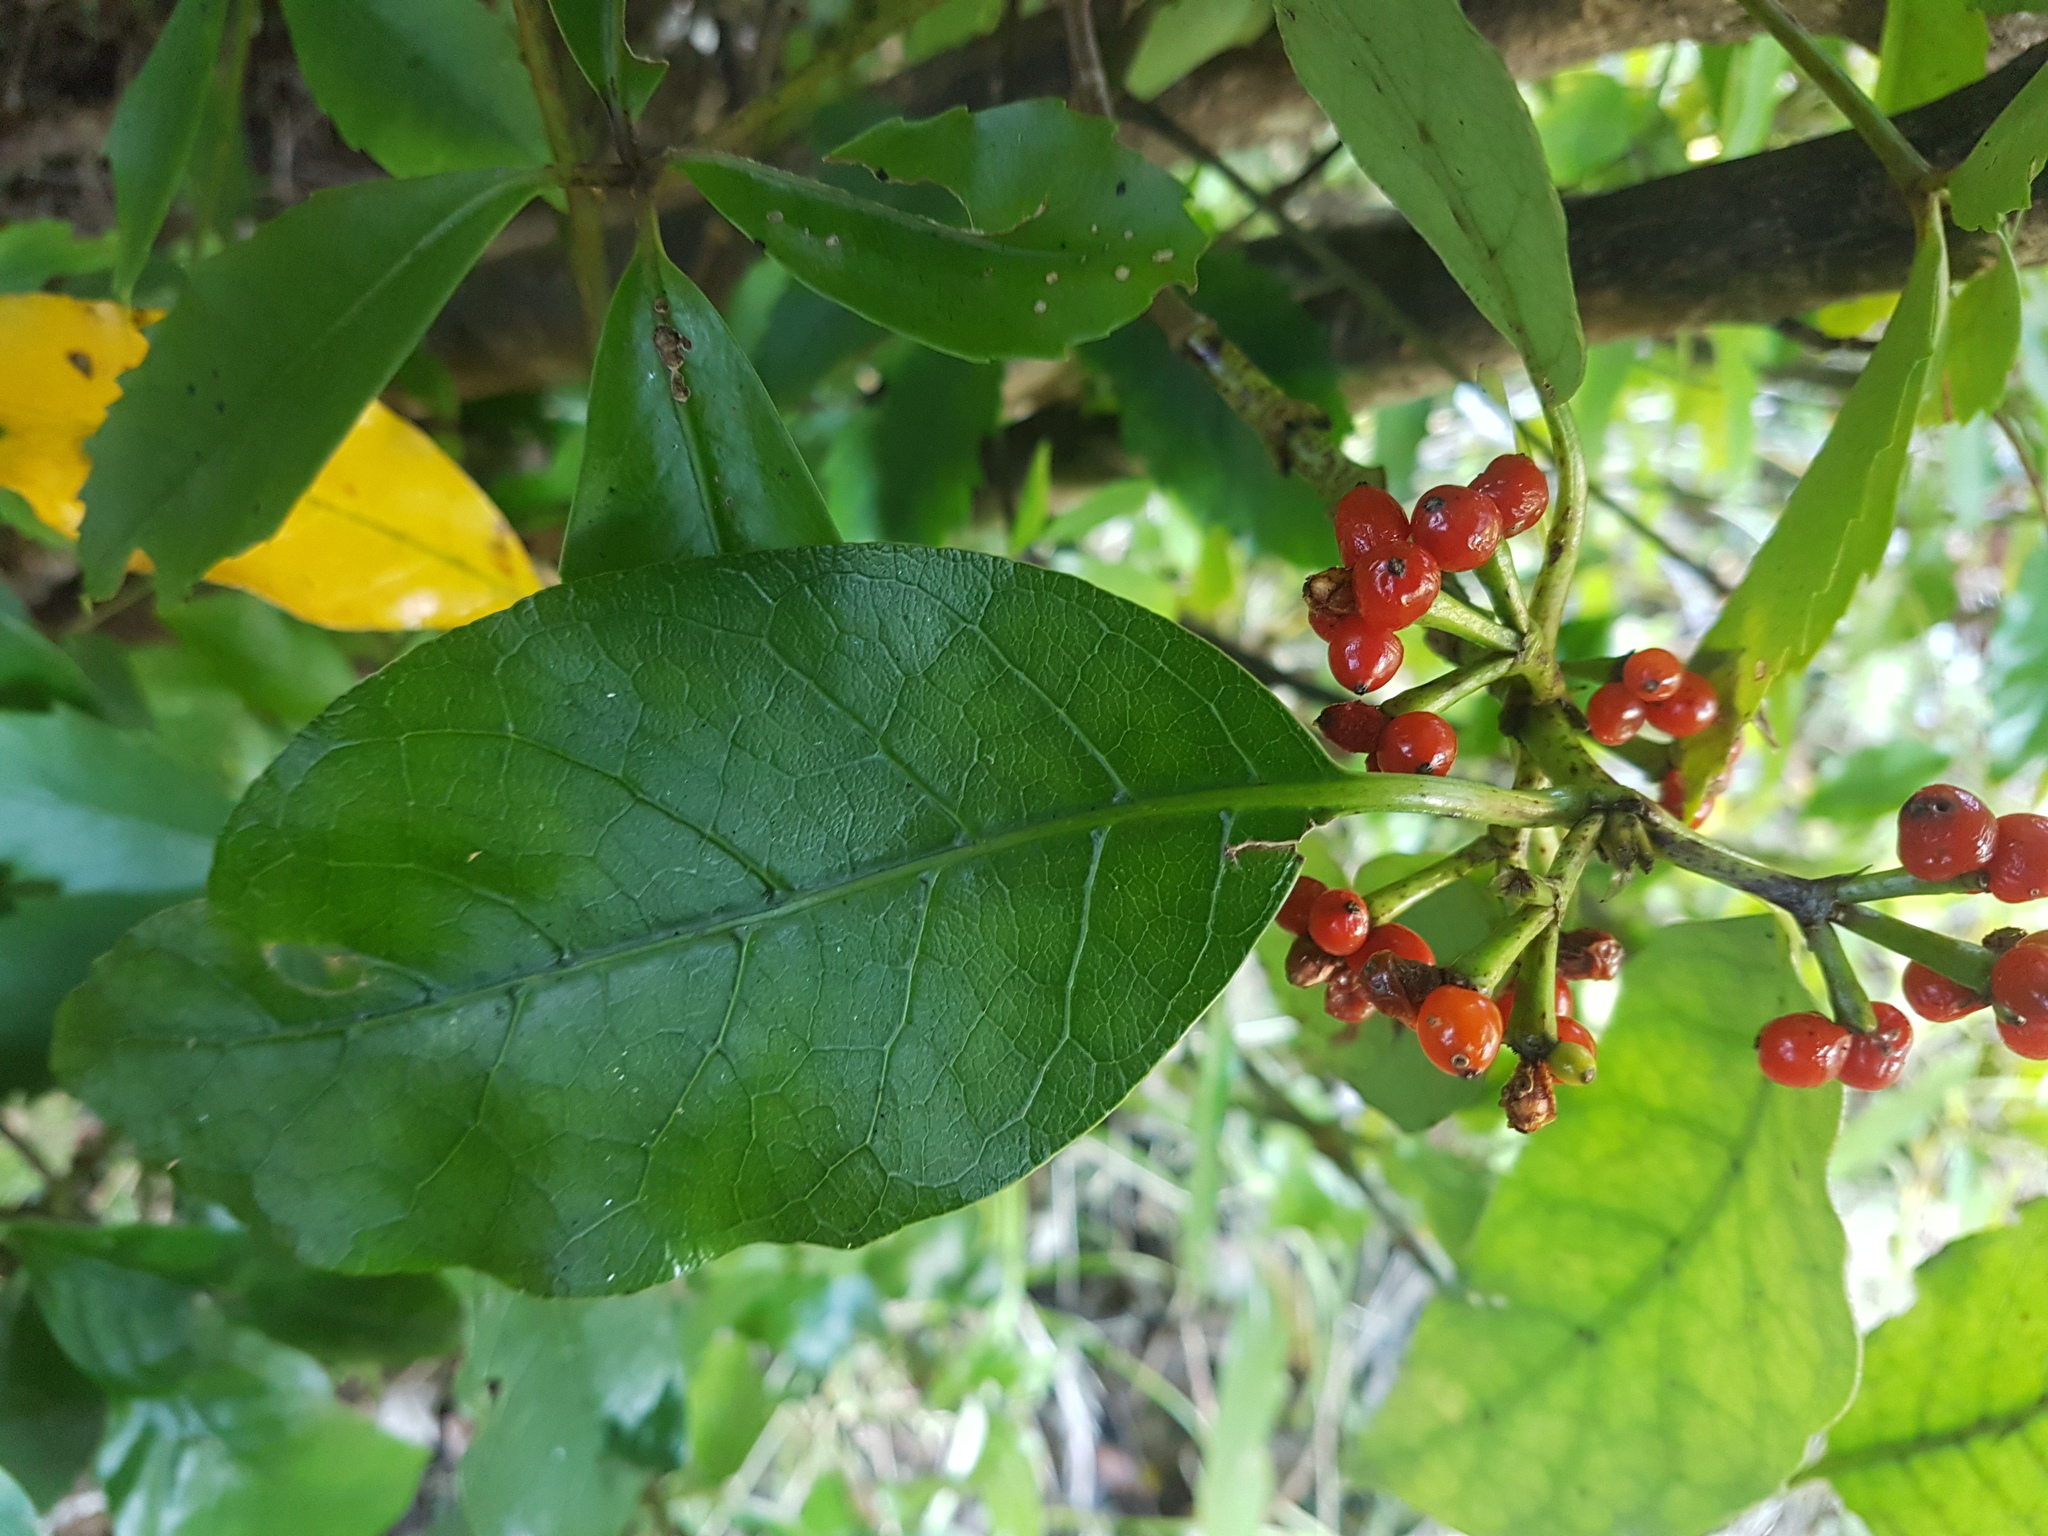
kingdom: Plantae
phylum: Tracheophyta
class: Magnoliopsida
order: Gentianales
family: Rubiaceae
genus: Coprosma
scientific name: Coprosma autumnalis
